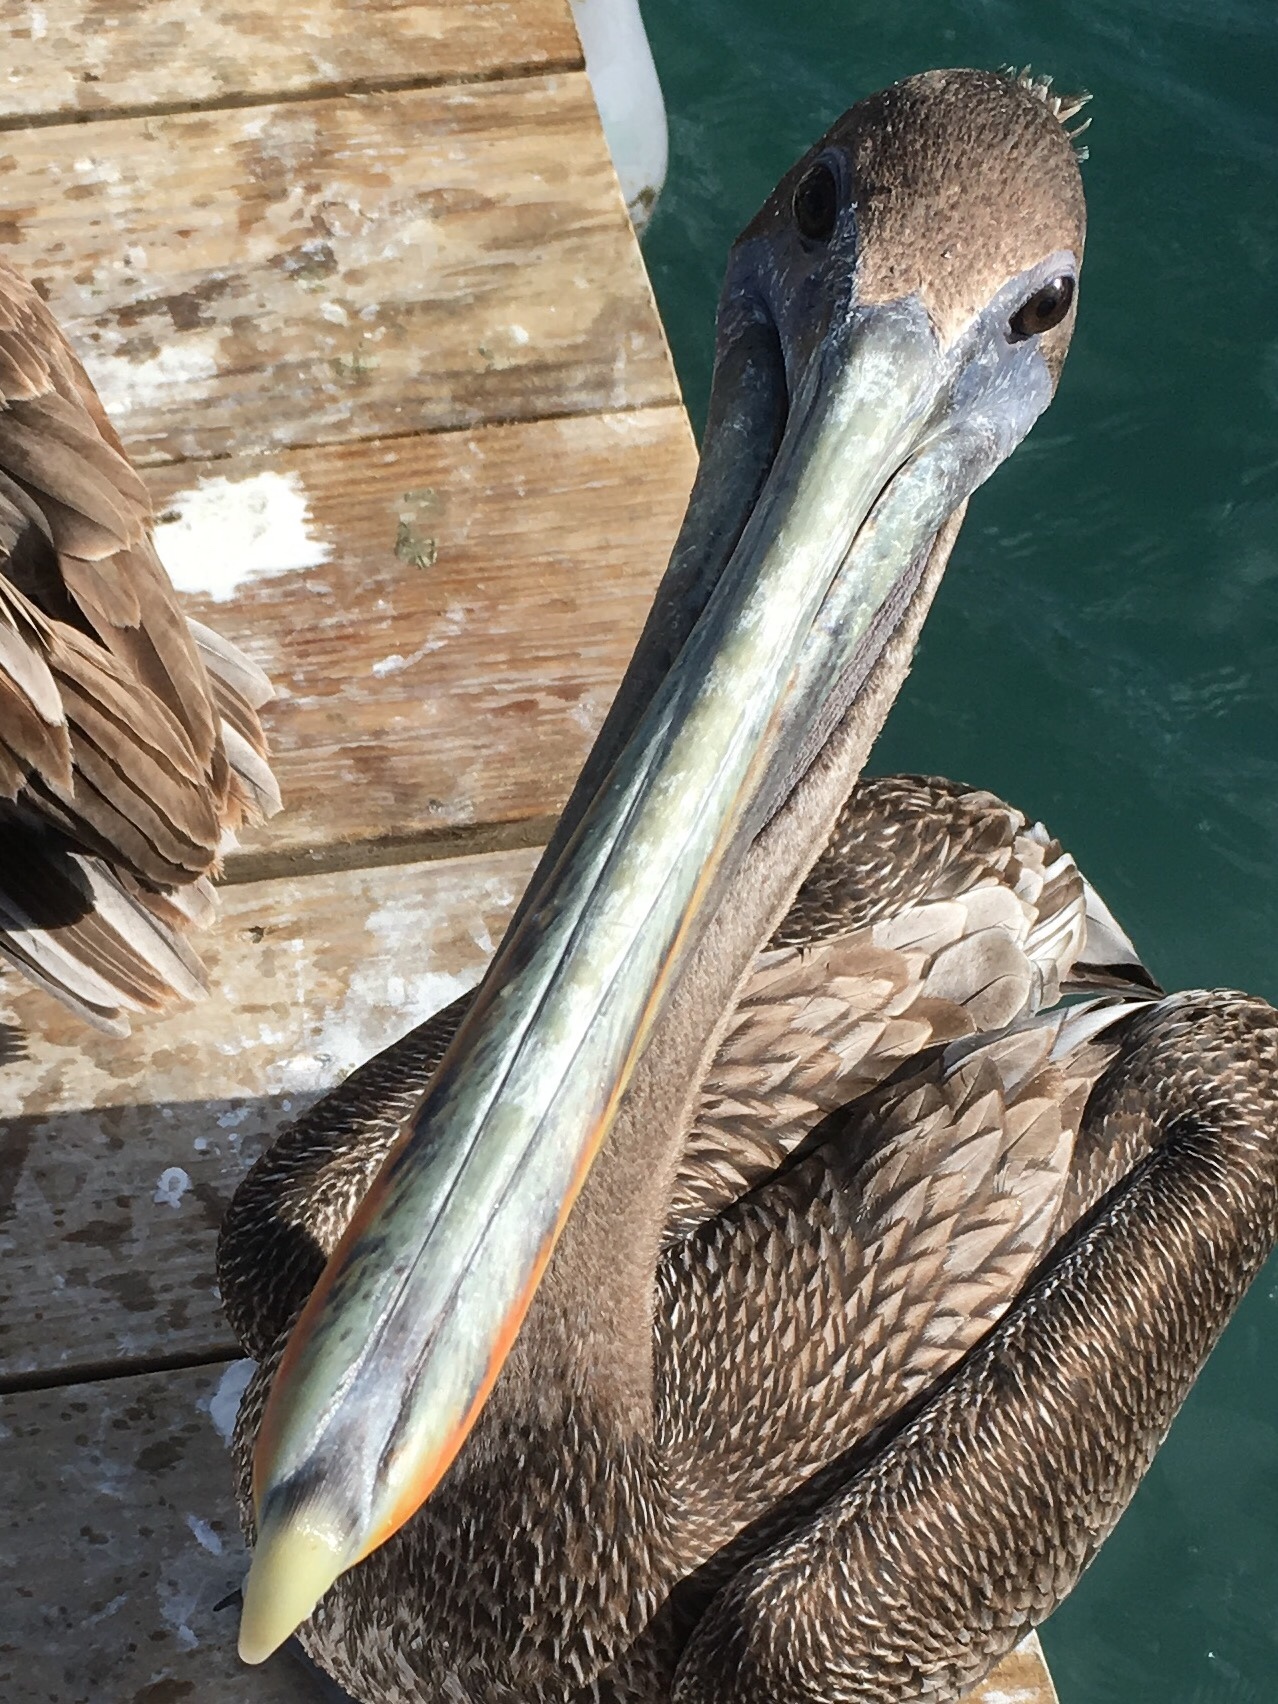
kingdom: Animalia
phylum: Chordata
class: Aves
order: Pelecaniformes
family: Pelecanidae
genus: Pelecanus
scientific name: Pelecanus occidentalis
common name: Brown pelican
